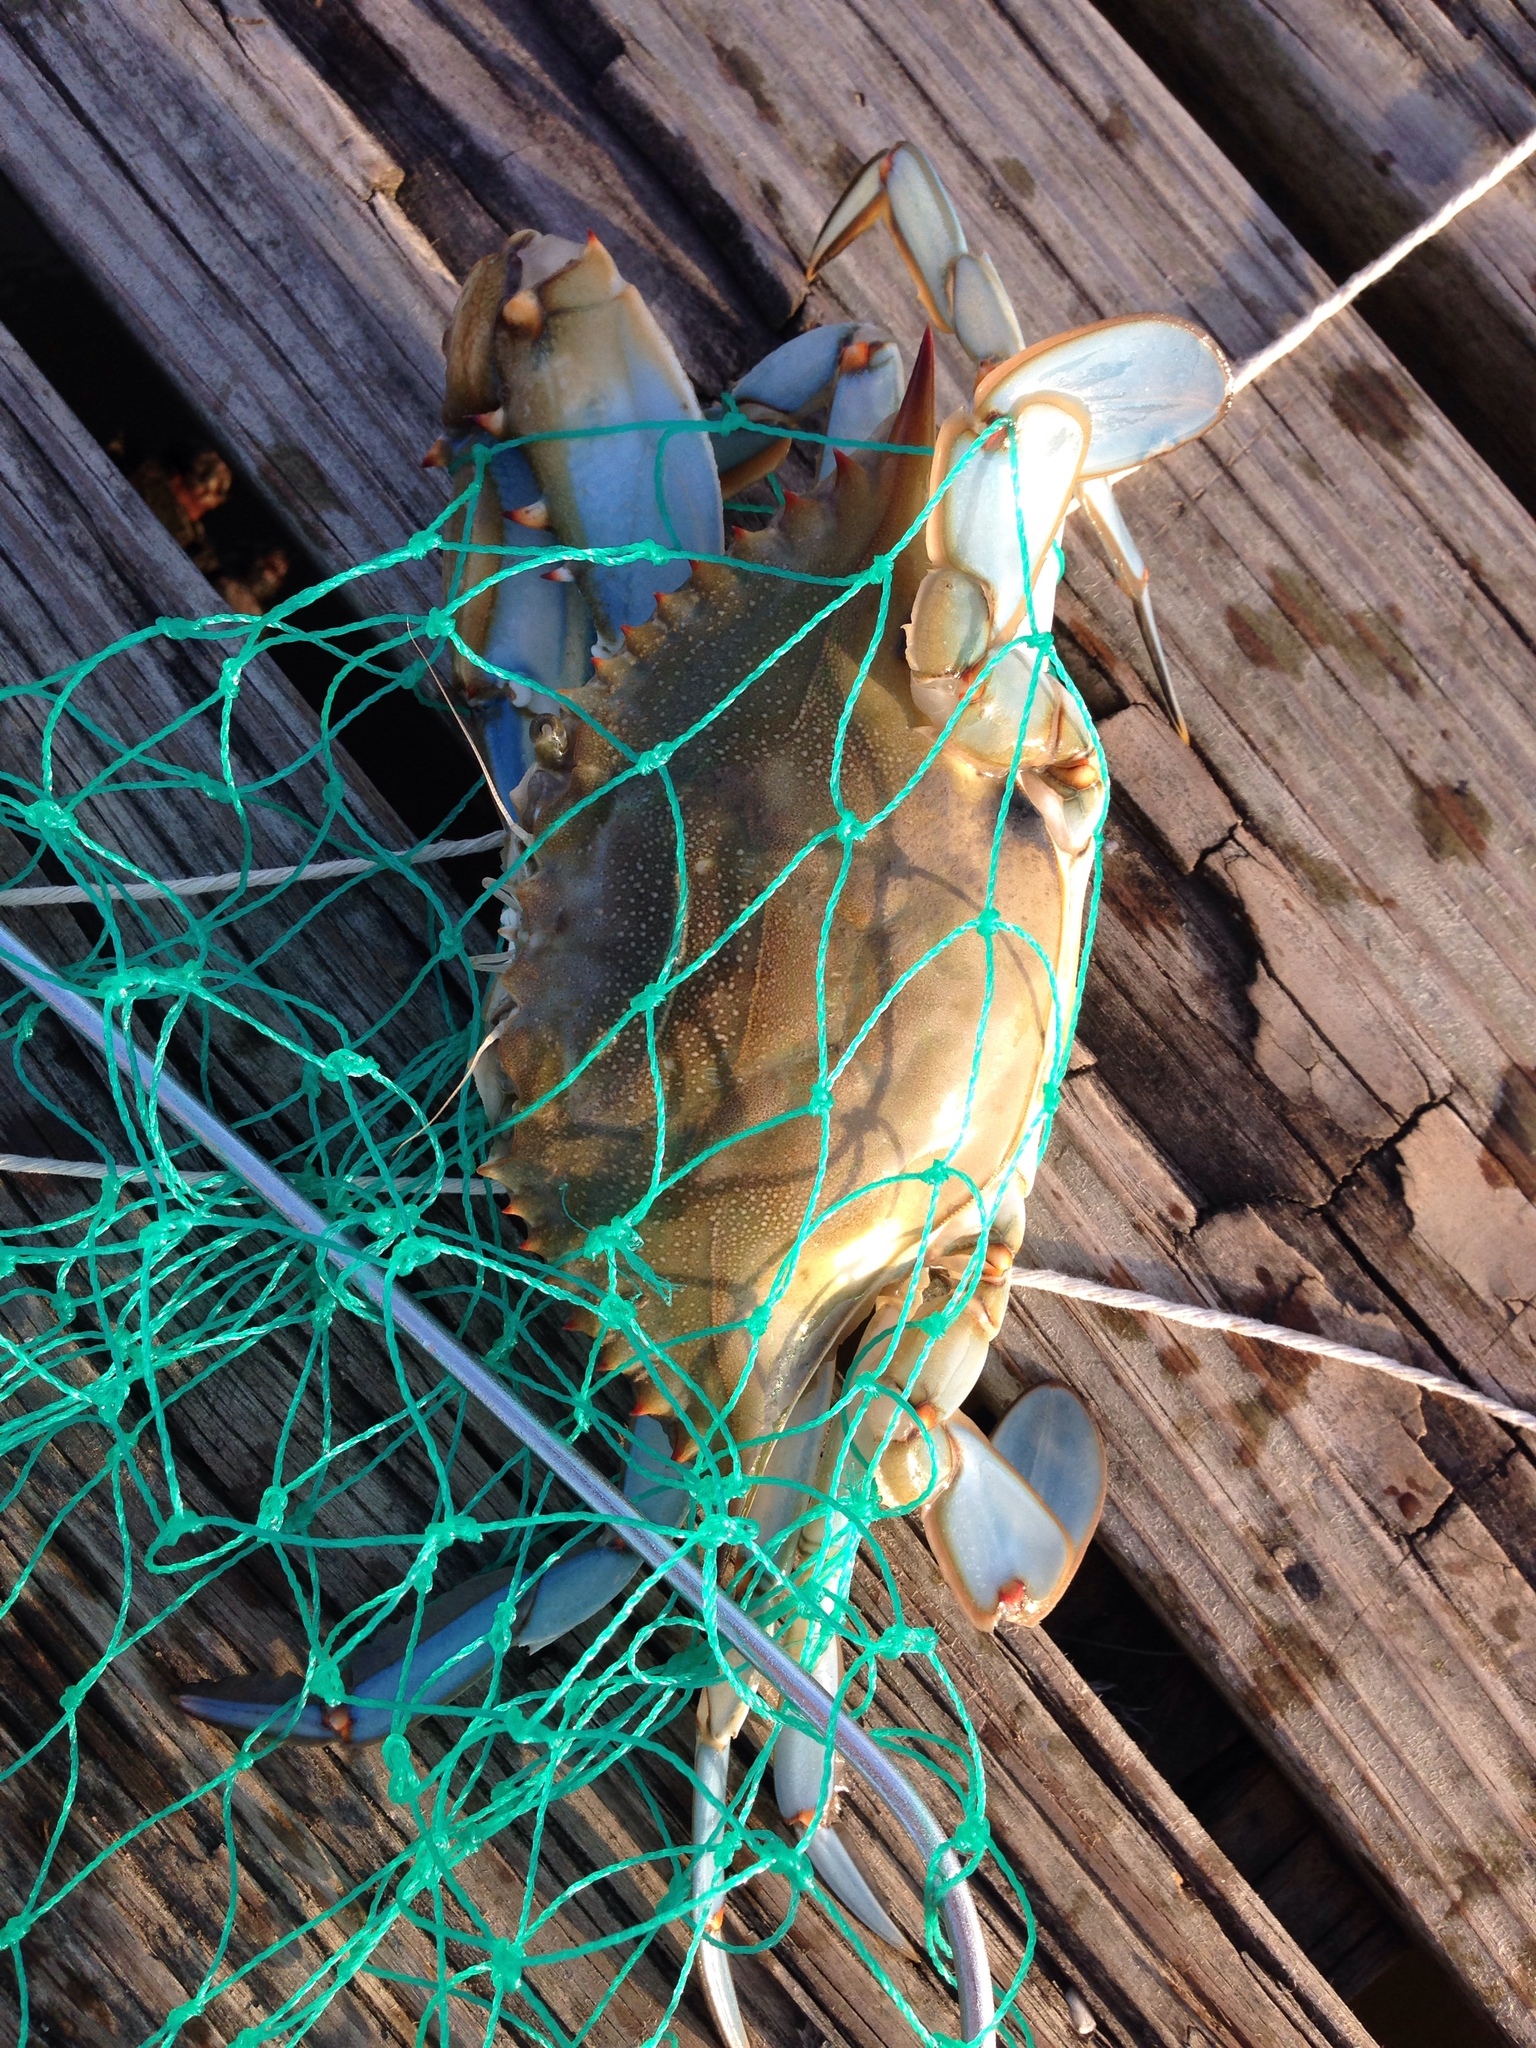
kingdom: Animalia
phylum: Arthropoda
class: Malacostraca
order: Decapoda
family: Portunidae
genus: Callinectes
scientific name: Callinectes sapidus
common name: Blue crab
